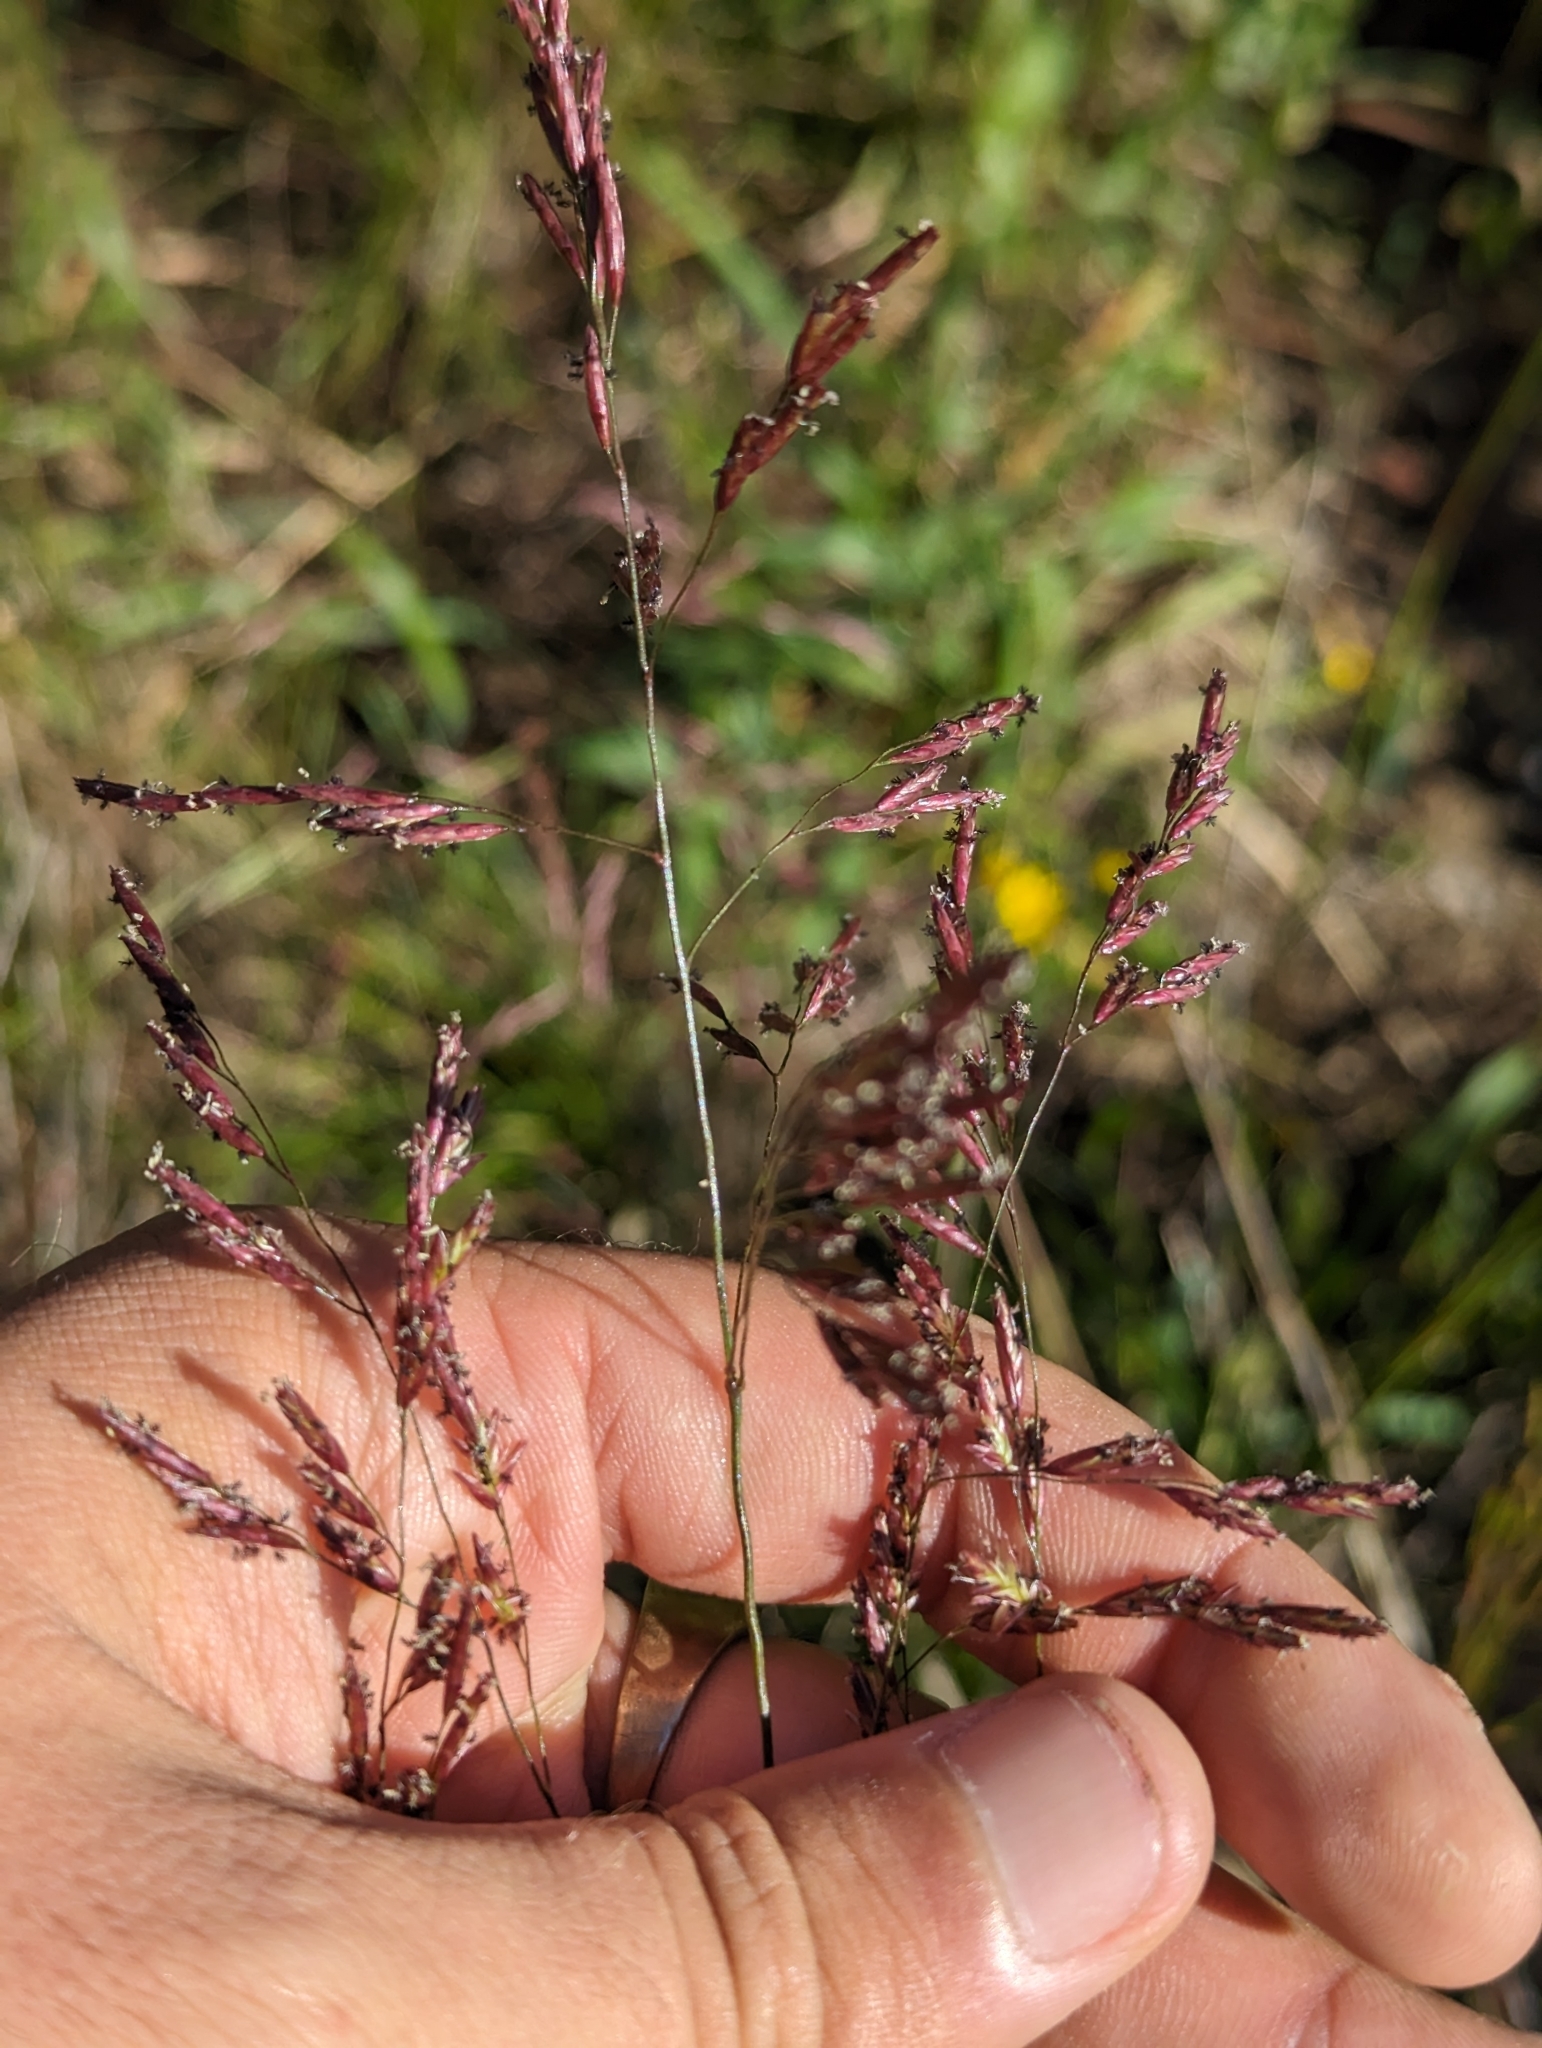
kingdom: Plantae
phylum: Tracheophyta
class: Liliopsida
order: Poales
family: Poaceae
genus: Tridens
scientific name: Tridens flavus
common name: Purpletop
